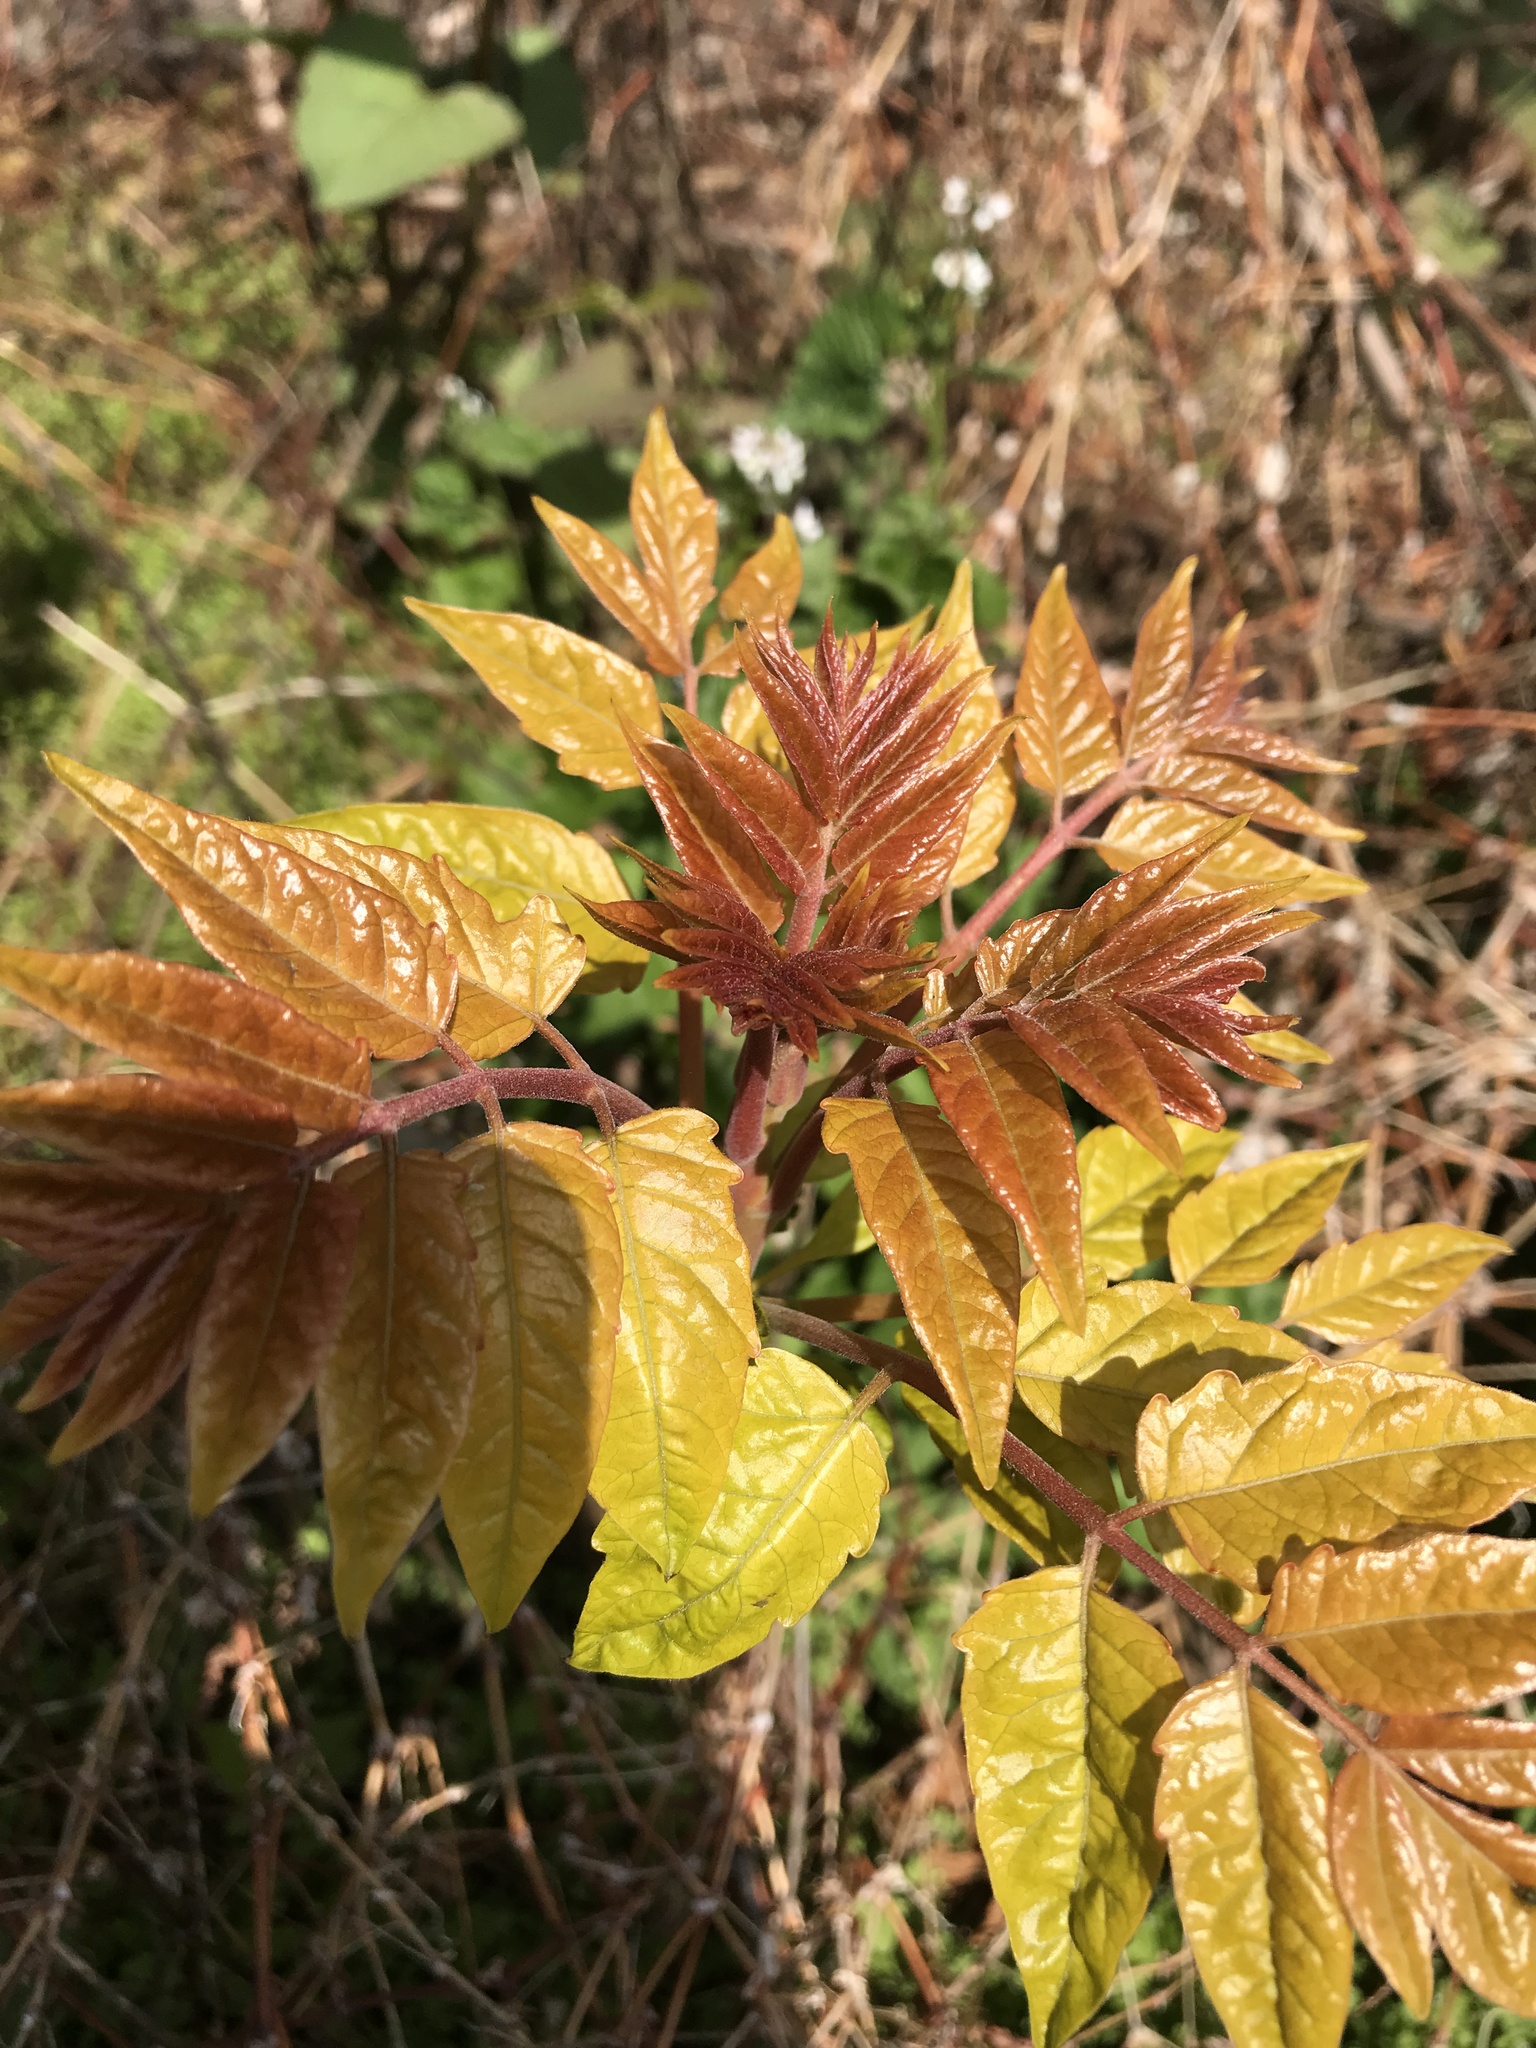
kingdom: Plantae
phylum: Tracheophyta
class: Magnoliopsida
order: Sapindales
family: Simaroubaceae
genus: Ailanthus
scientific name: Ailanthus altissima
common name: Tree-of-heaven
